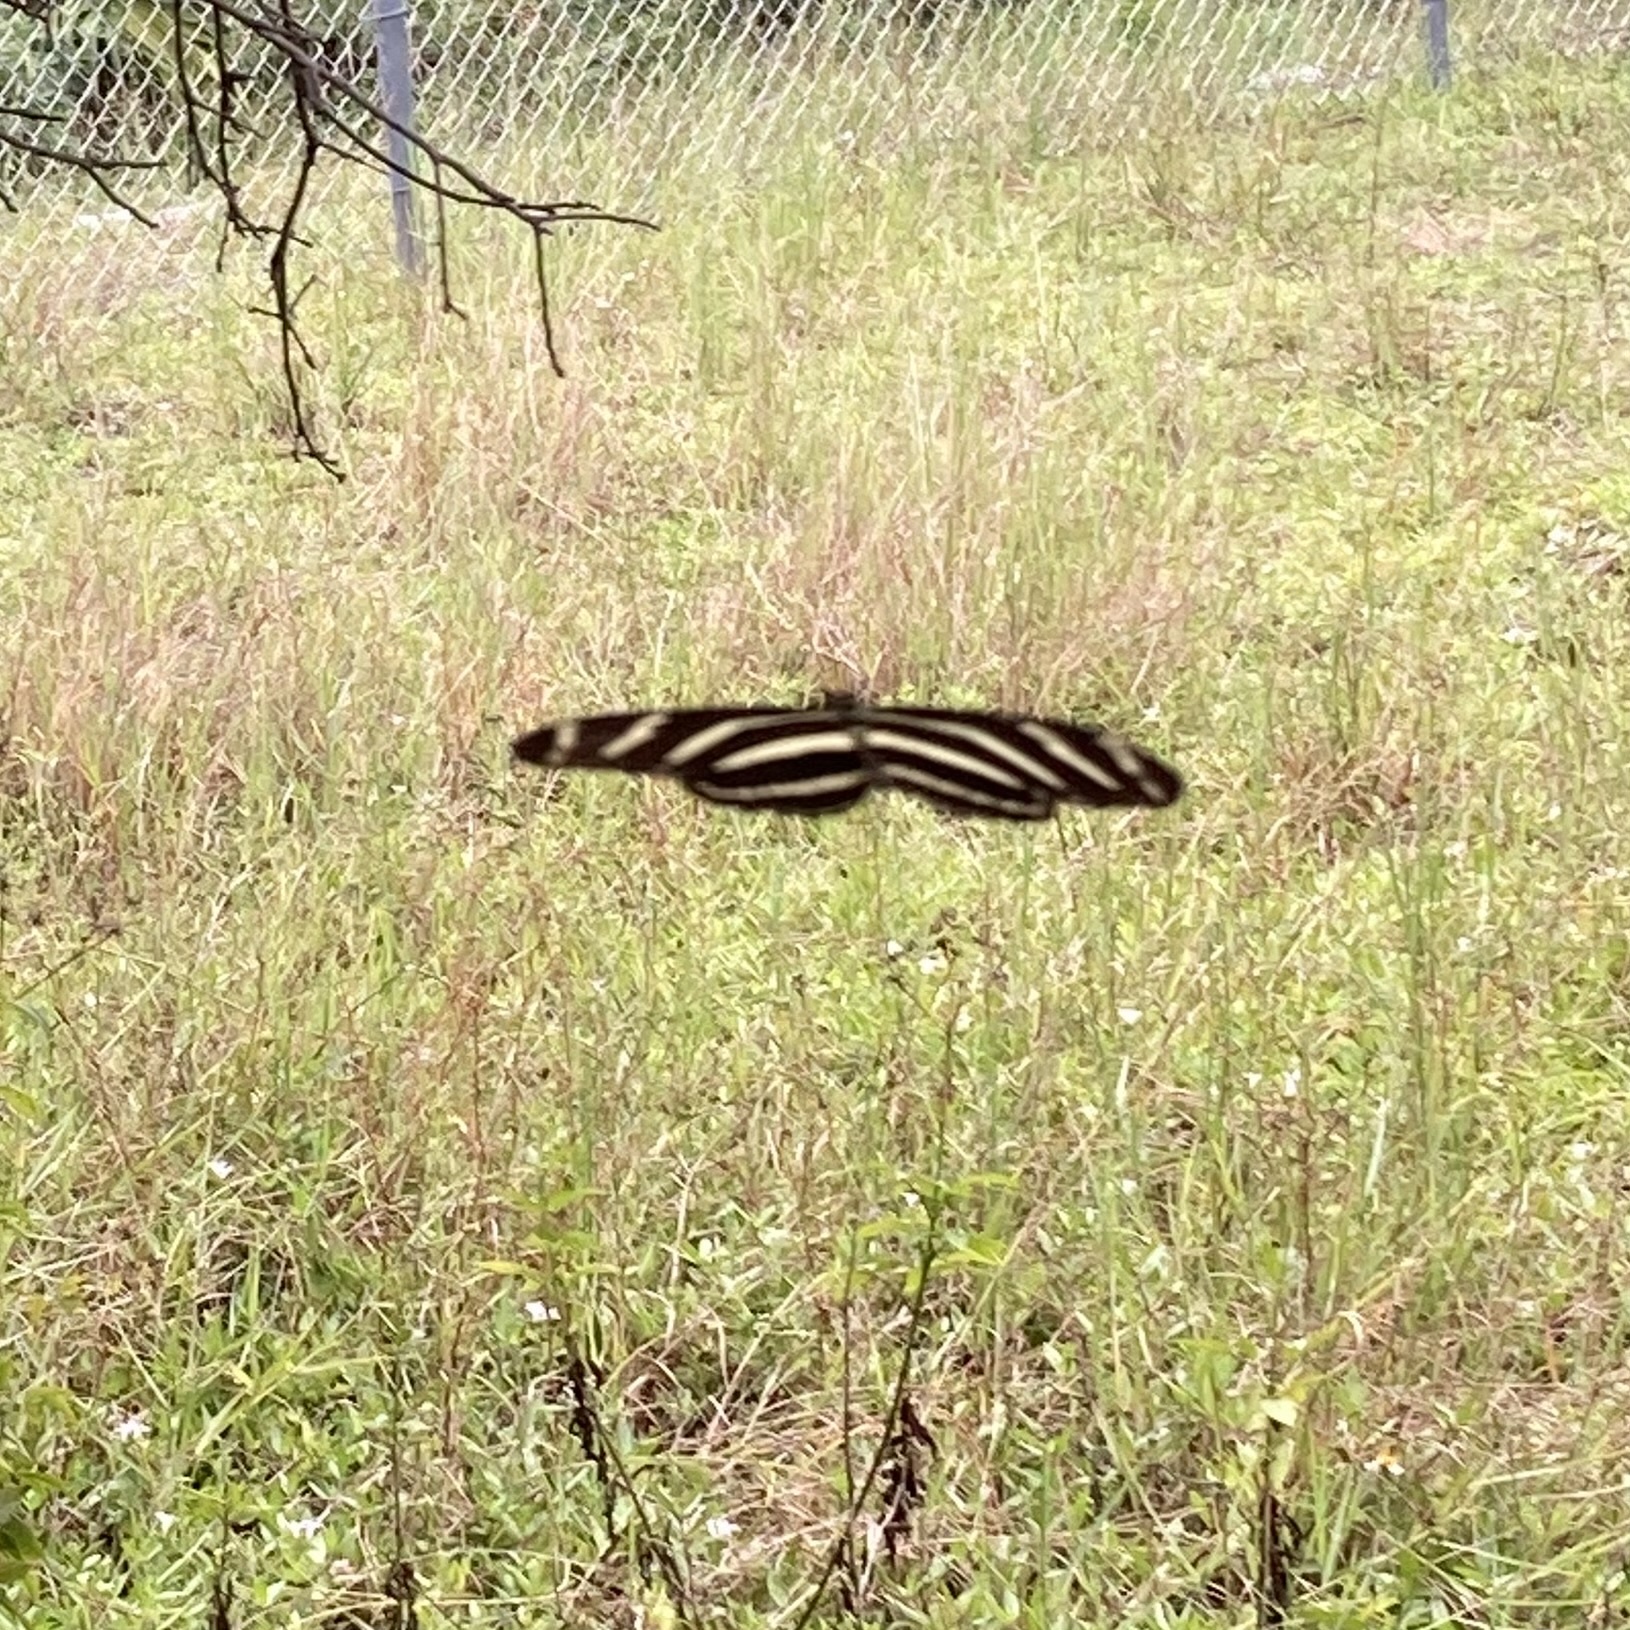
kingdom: Animalia
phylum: Arthropoda
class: Insecta
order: Lepidoptera
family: Nymphalidae
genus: Heliconius
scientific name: Heliconius charithonia
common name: Zebra long wing
